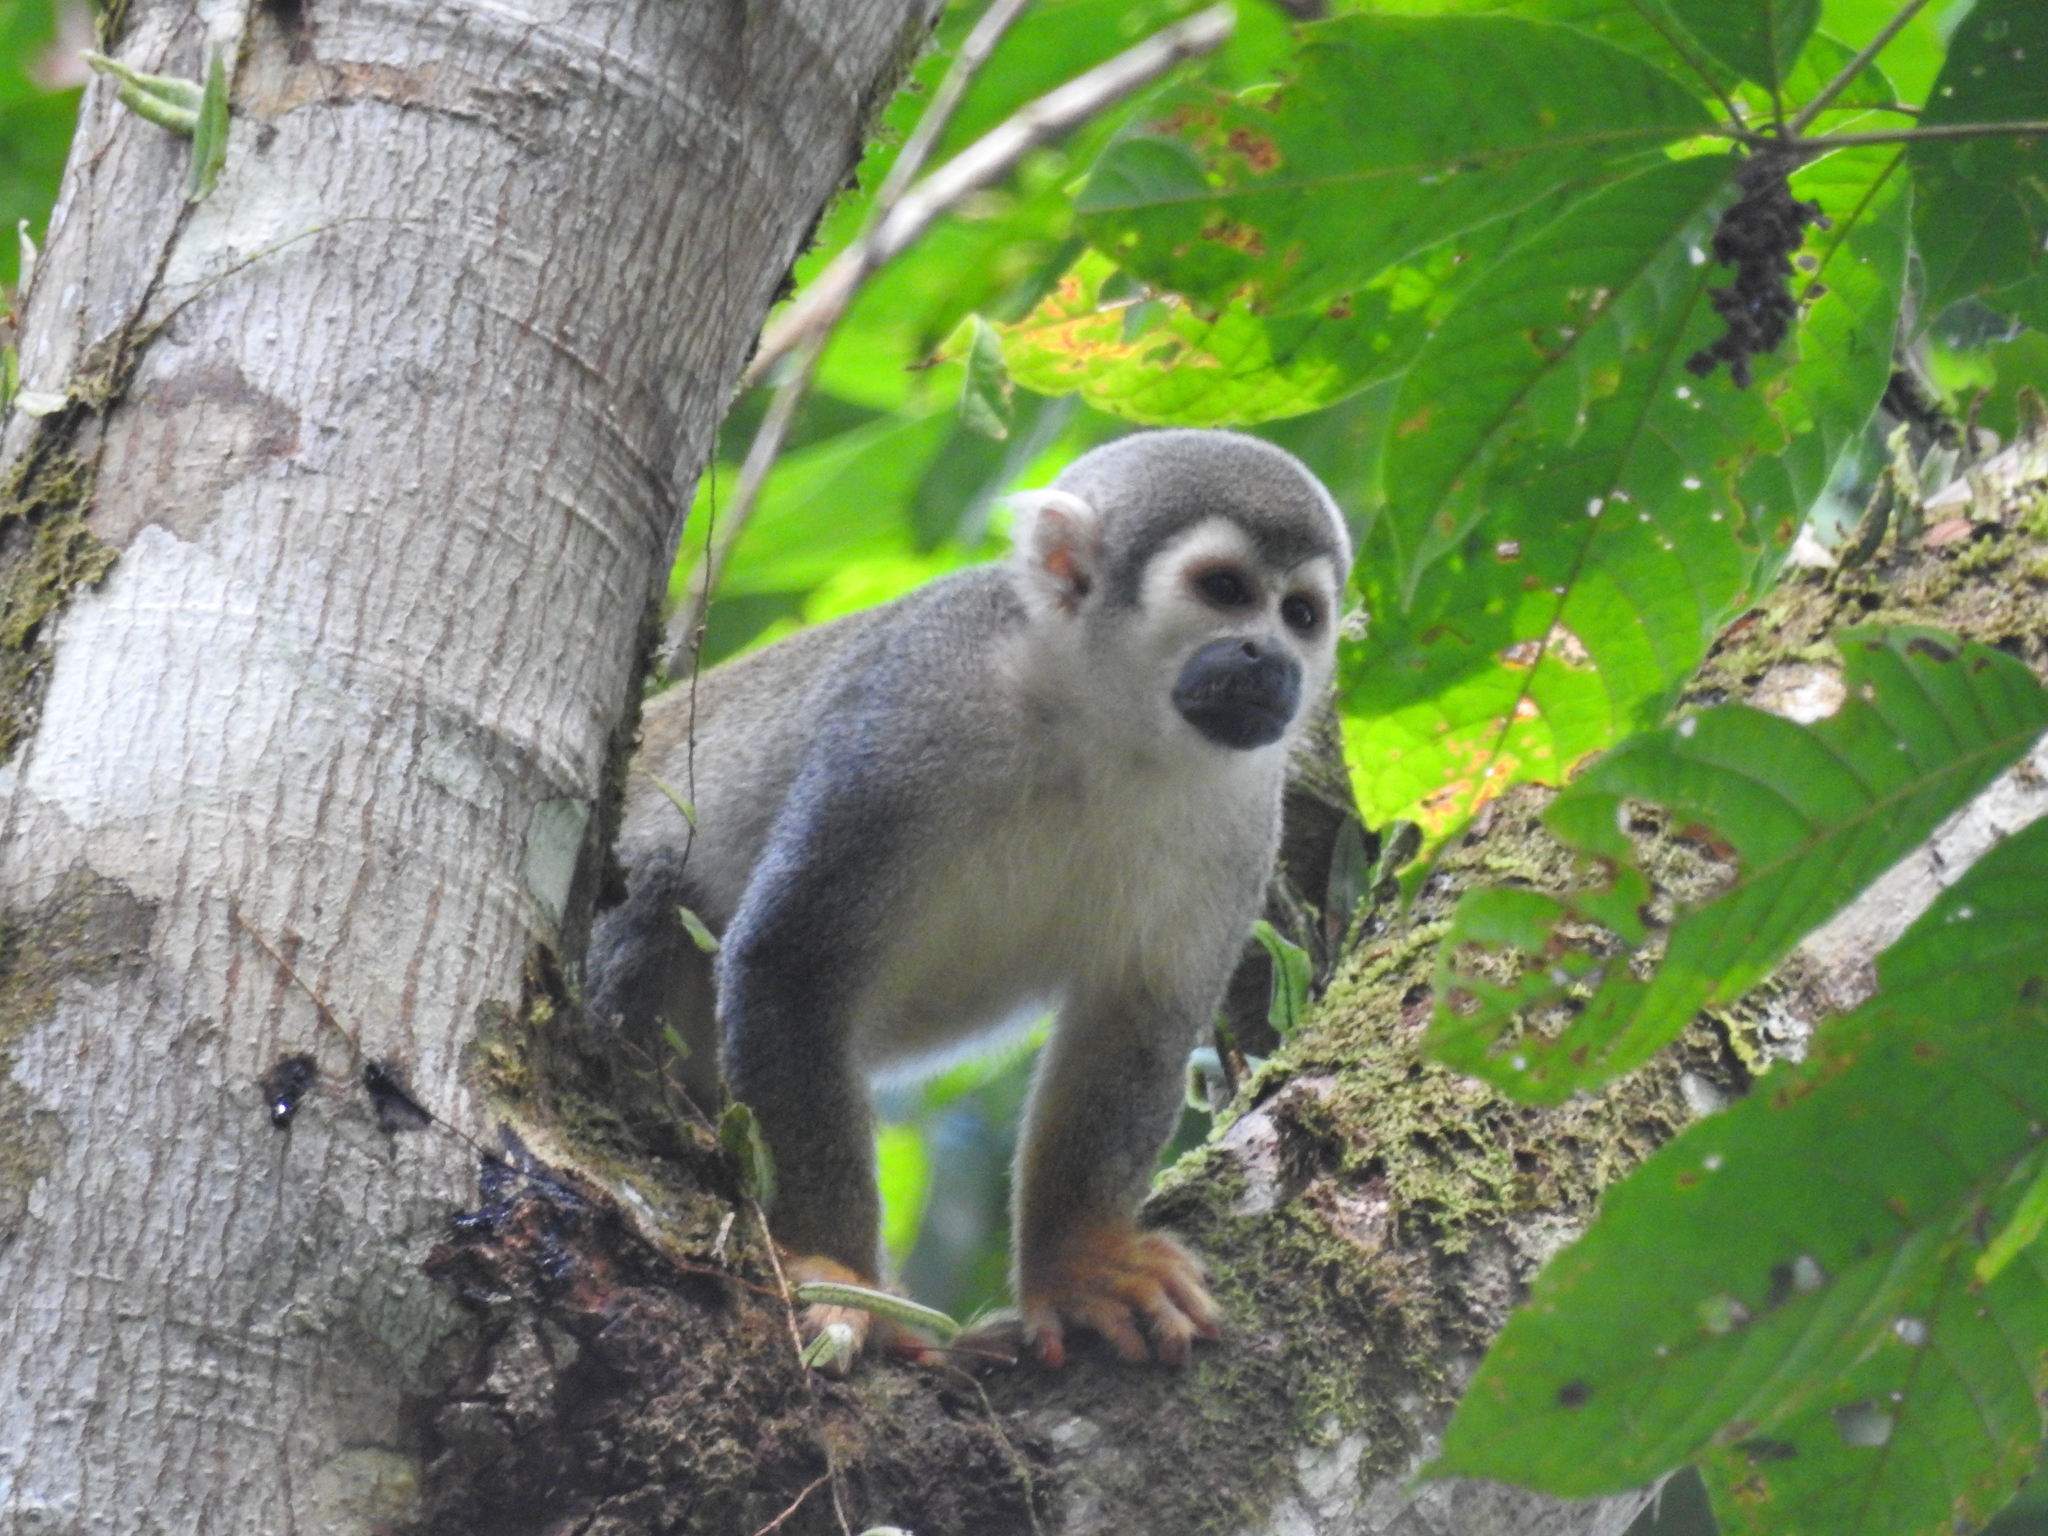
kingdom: Animalia
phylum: Chordata
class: Mammalia
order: Primates
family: Cebidae
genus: Saimiri
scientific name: Saimiri cassiquiarensis
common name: Humboldt’s squirrel monkey
